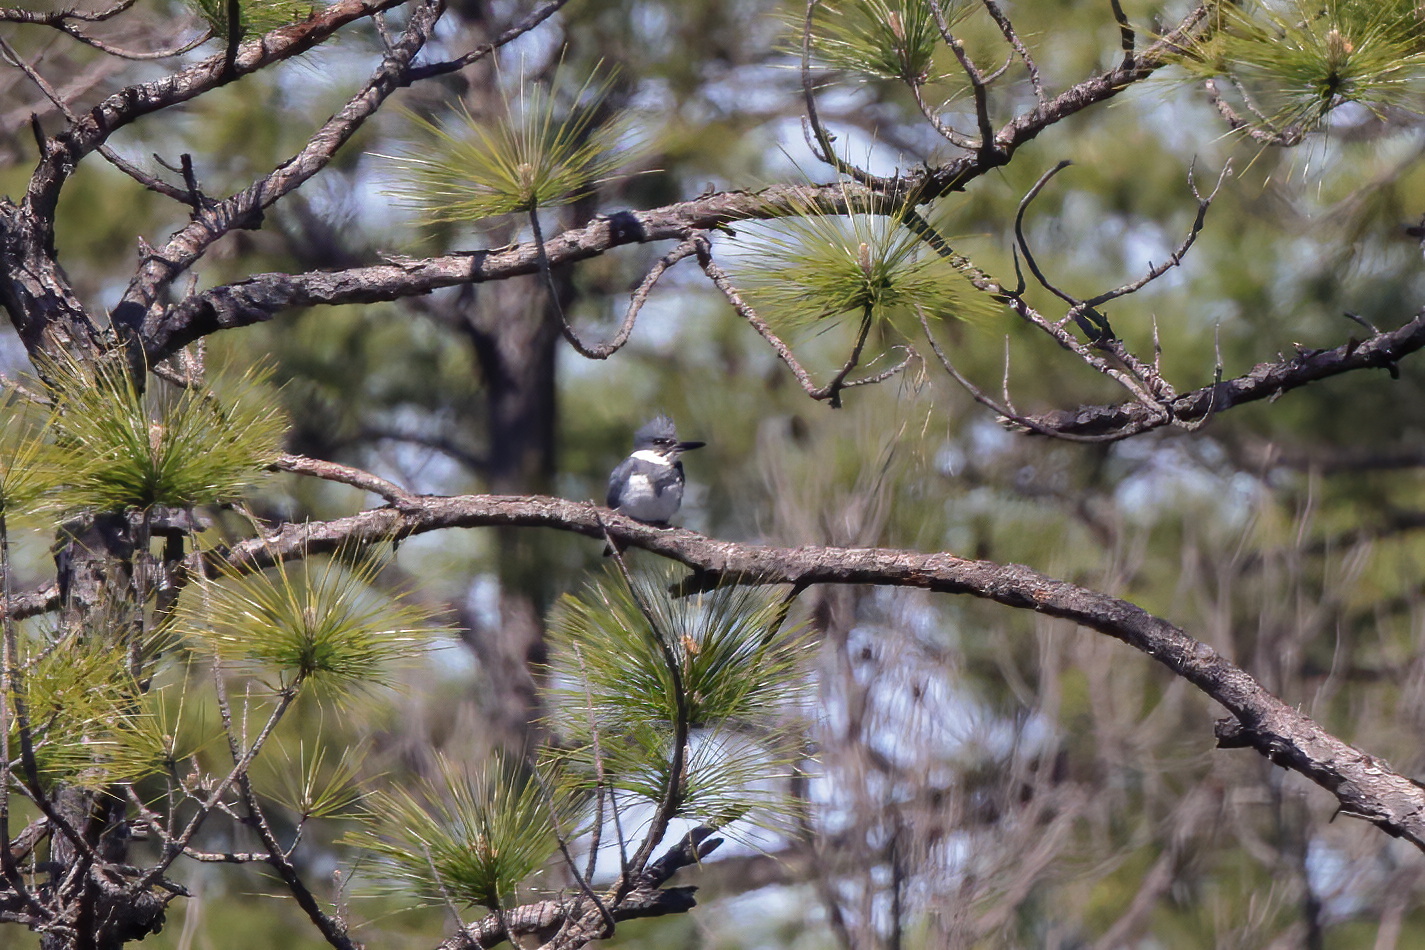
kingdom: Animalia
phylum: Chordata
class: Aves
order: Coraciiformes
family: Alcedinidae
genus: Megaceryle
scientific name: Megaceryle alcyon
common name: Belted kingfisher
